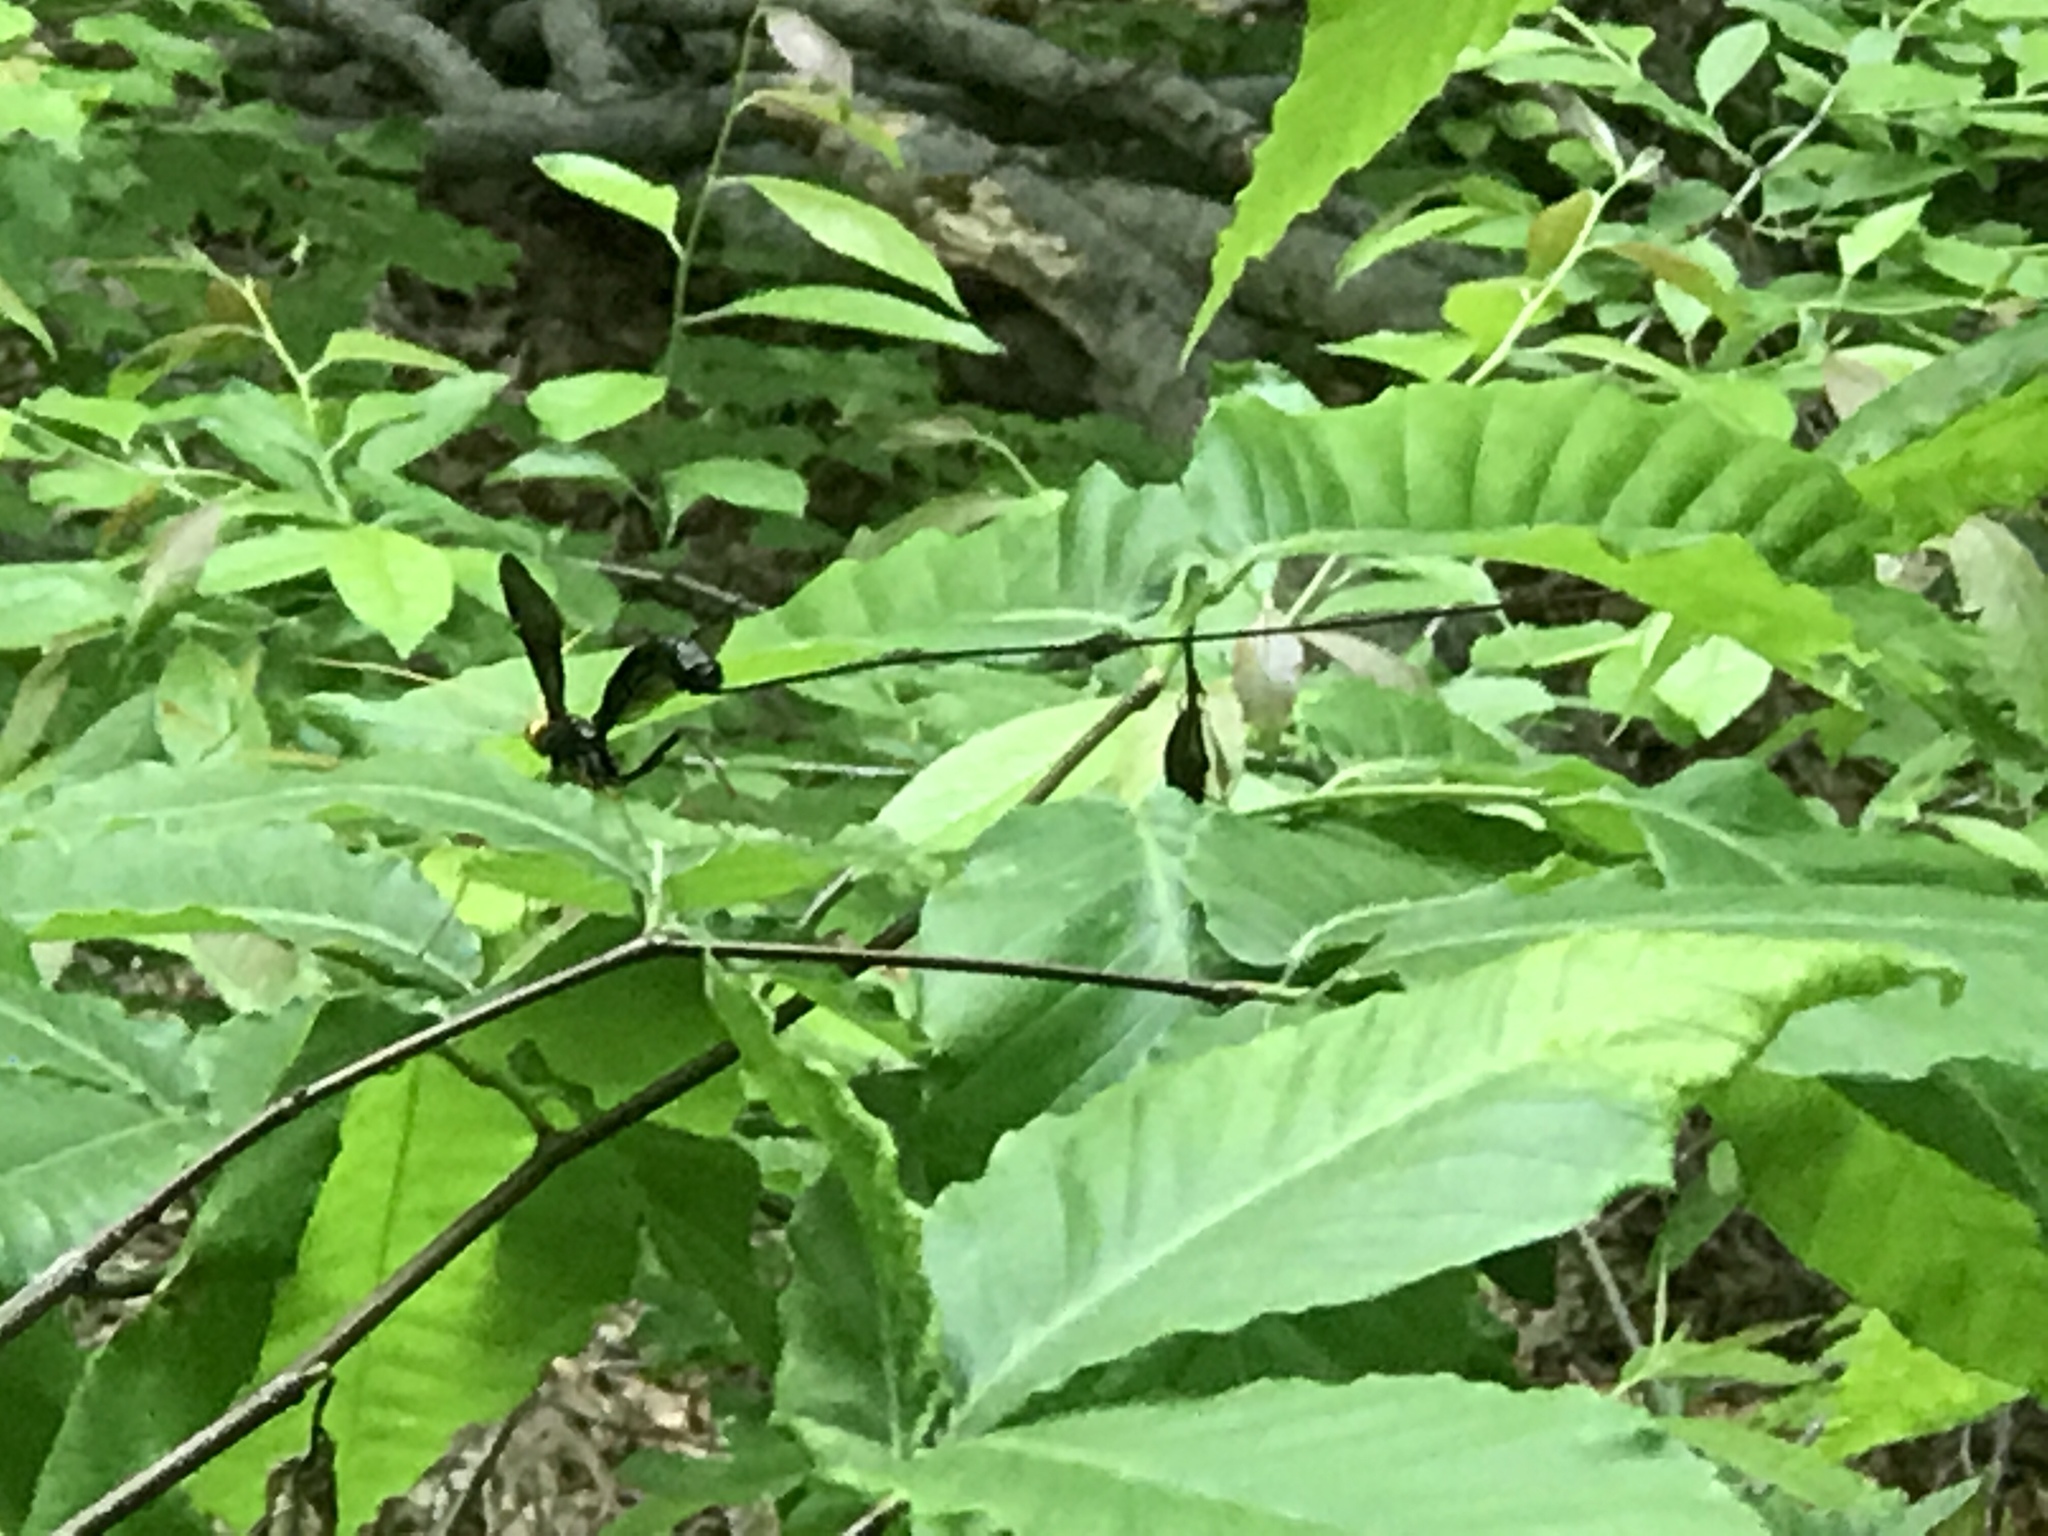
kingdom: Animalia
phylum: Arthropoda
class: Insecta
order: Hymenoptera
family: Ichneumonidae
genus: Megarhyssa
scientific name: Megarhyssa atrata
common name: Black giant ichneumonid wasp
